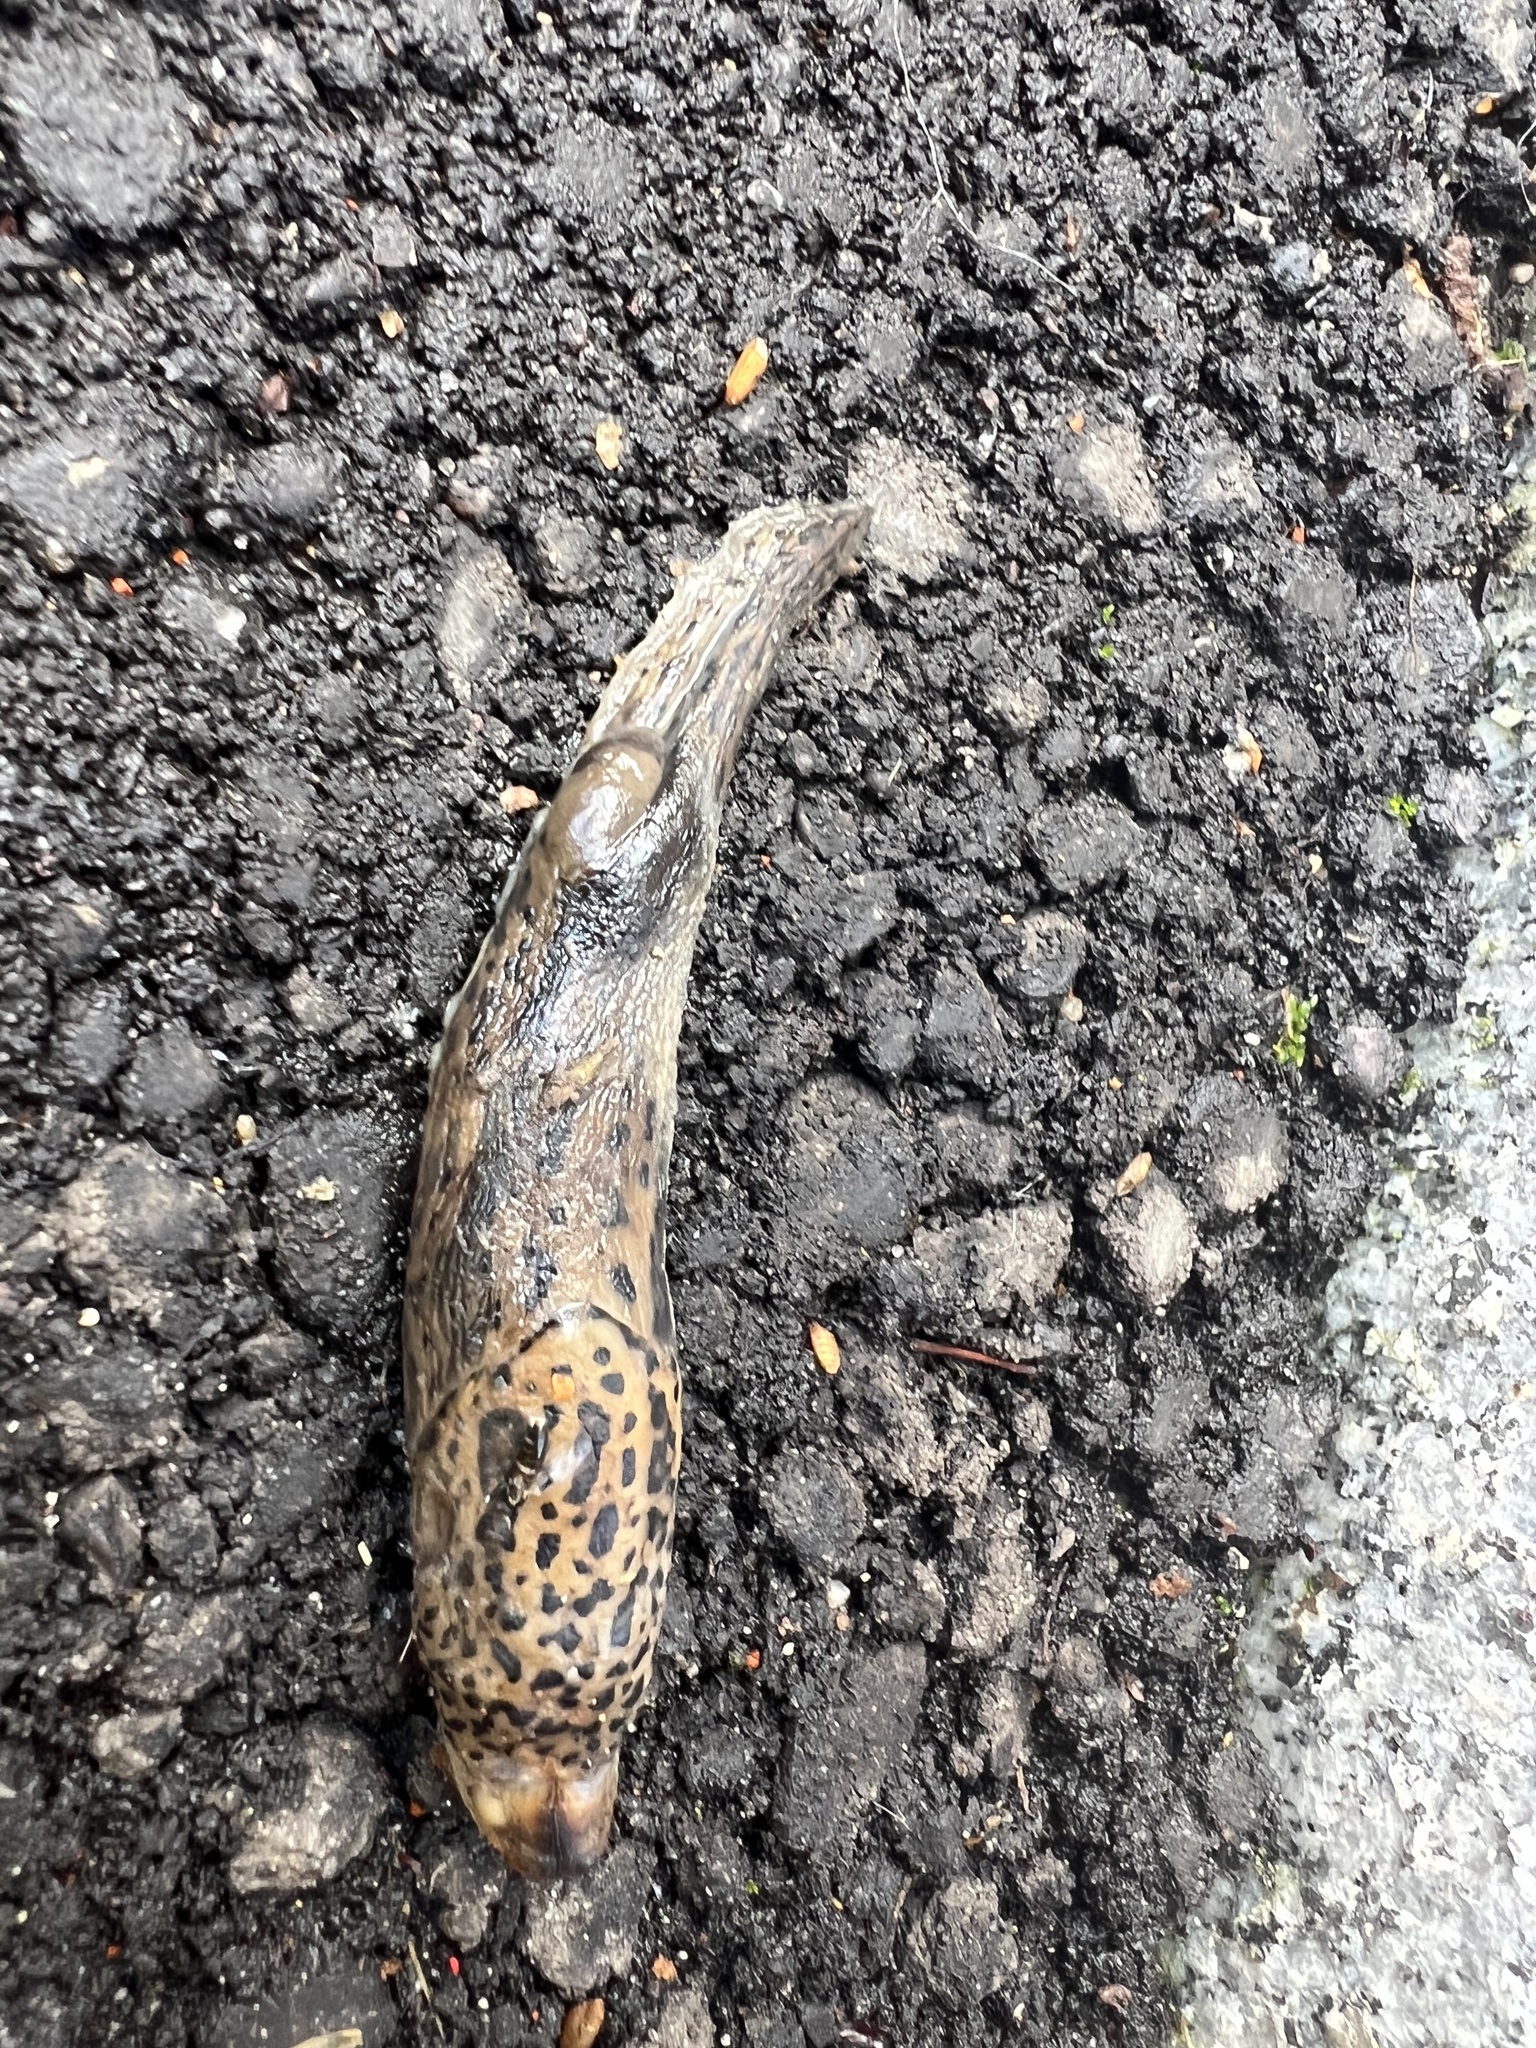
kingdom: Animalia
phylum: Mollusca
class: Gastropoda
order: Stylommatophora
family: Limacidae
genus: Limax
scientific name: Limax maximus
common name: Great grey slug
